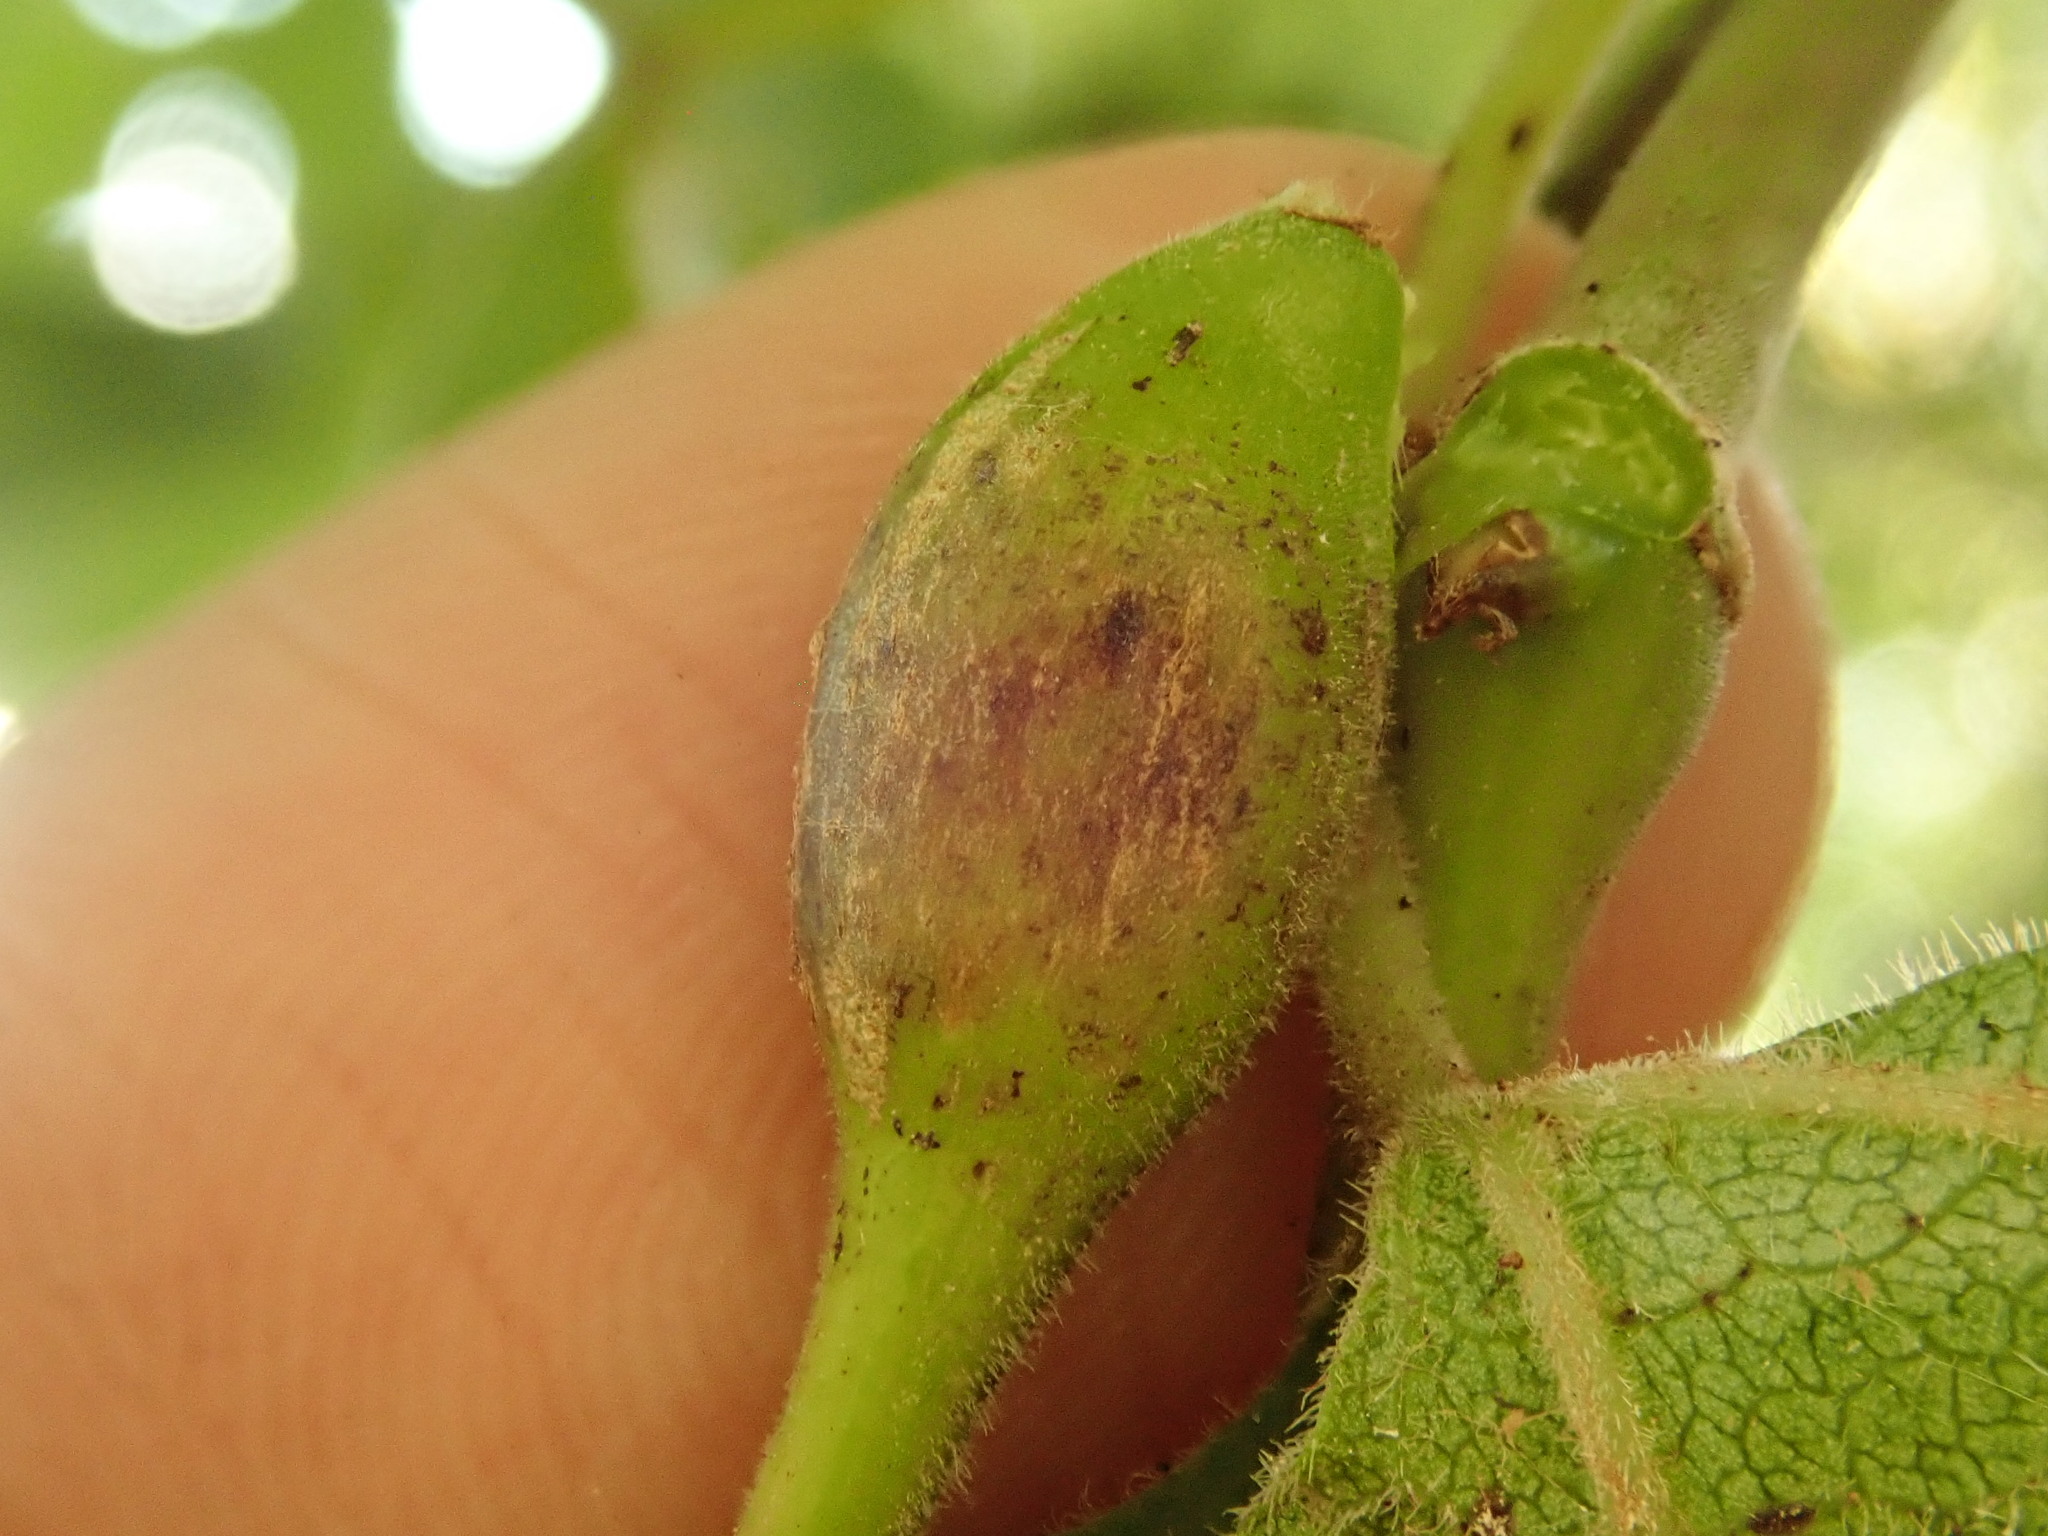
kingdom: Animalia
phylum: Arthropoda
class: Insecta
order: Diptera
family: Cecidomyiidae
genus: Neolasioptera
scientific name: Neolasioptera vitinea
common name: Grape leaf petiole gall
